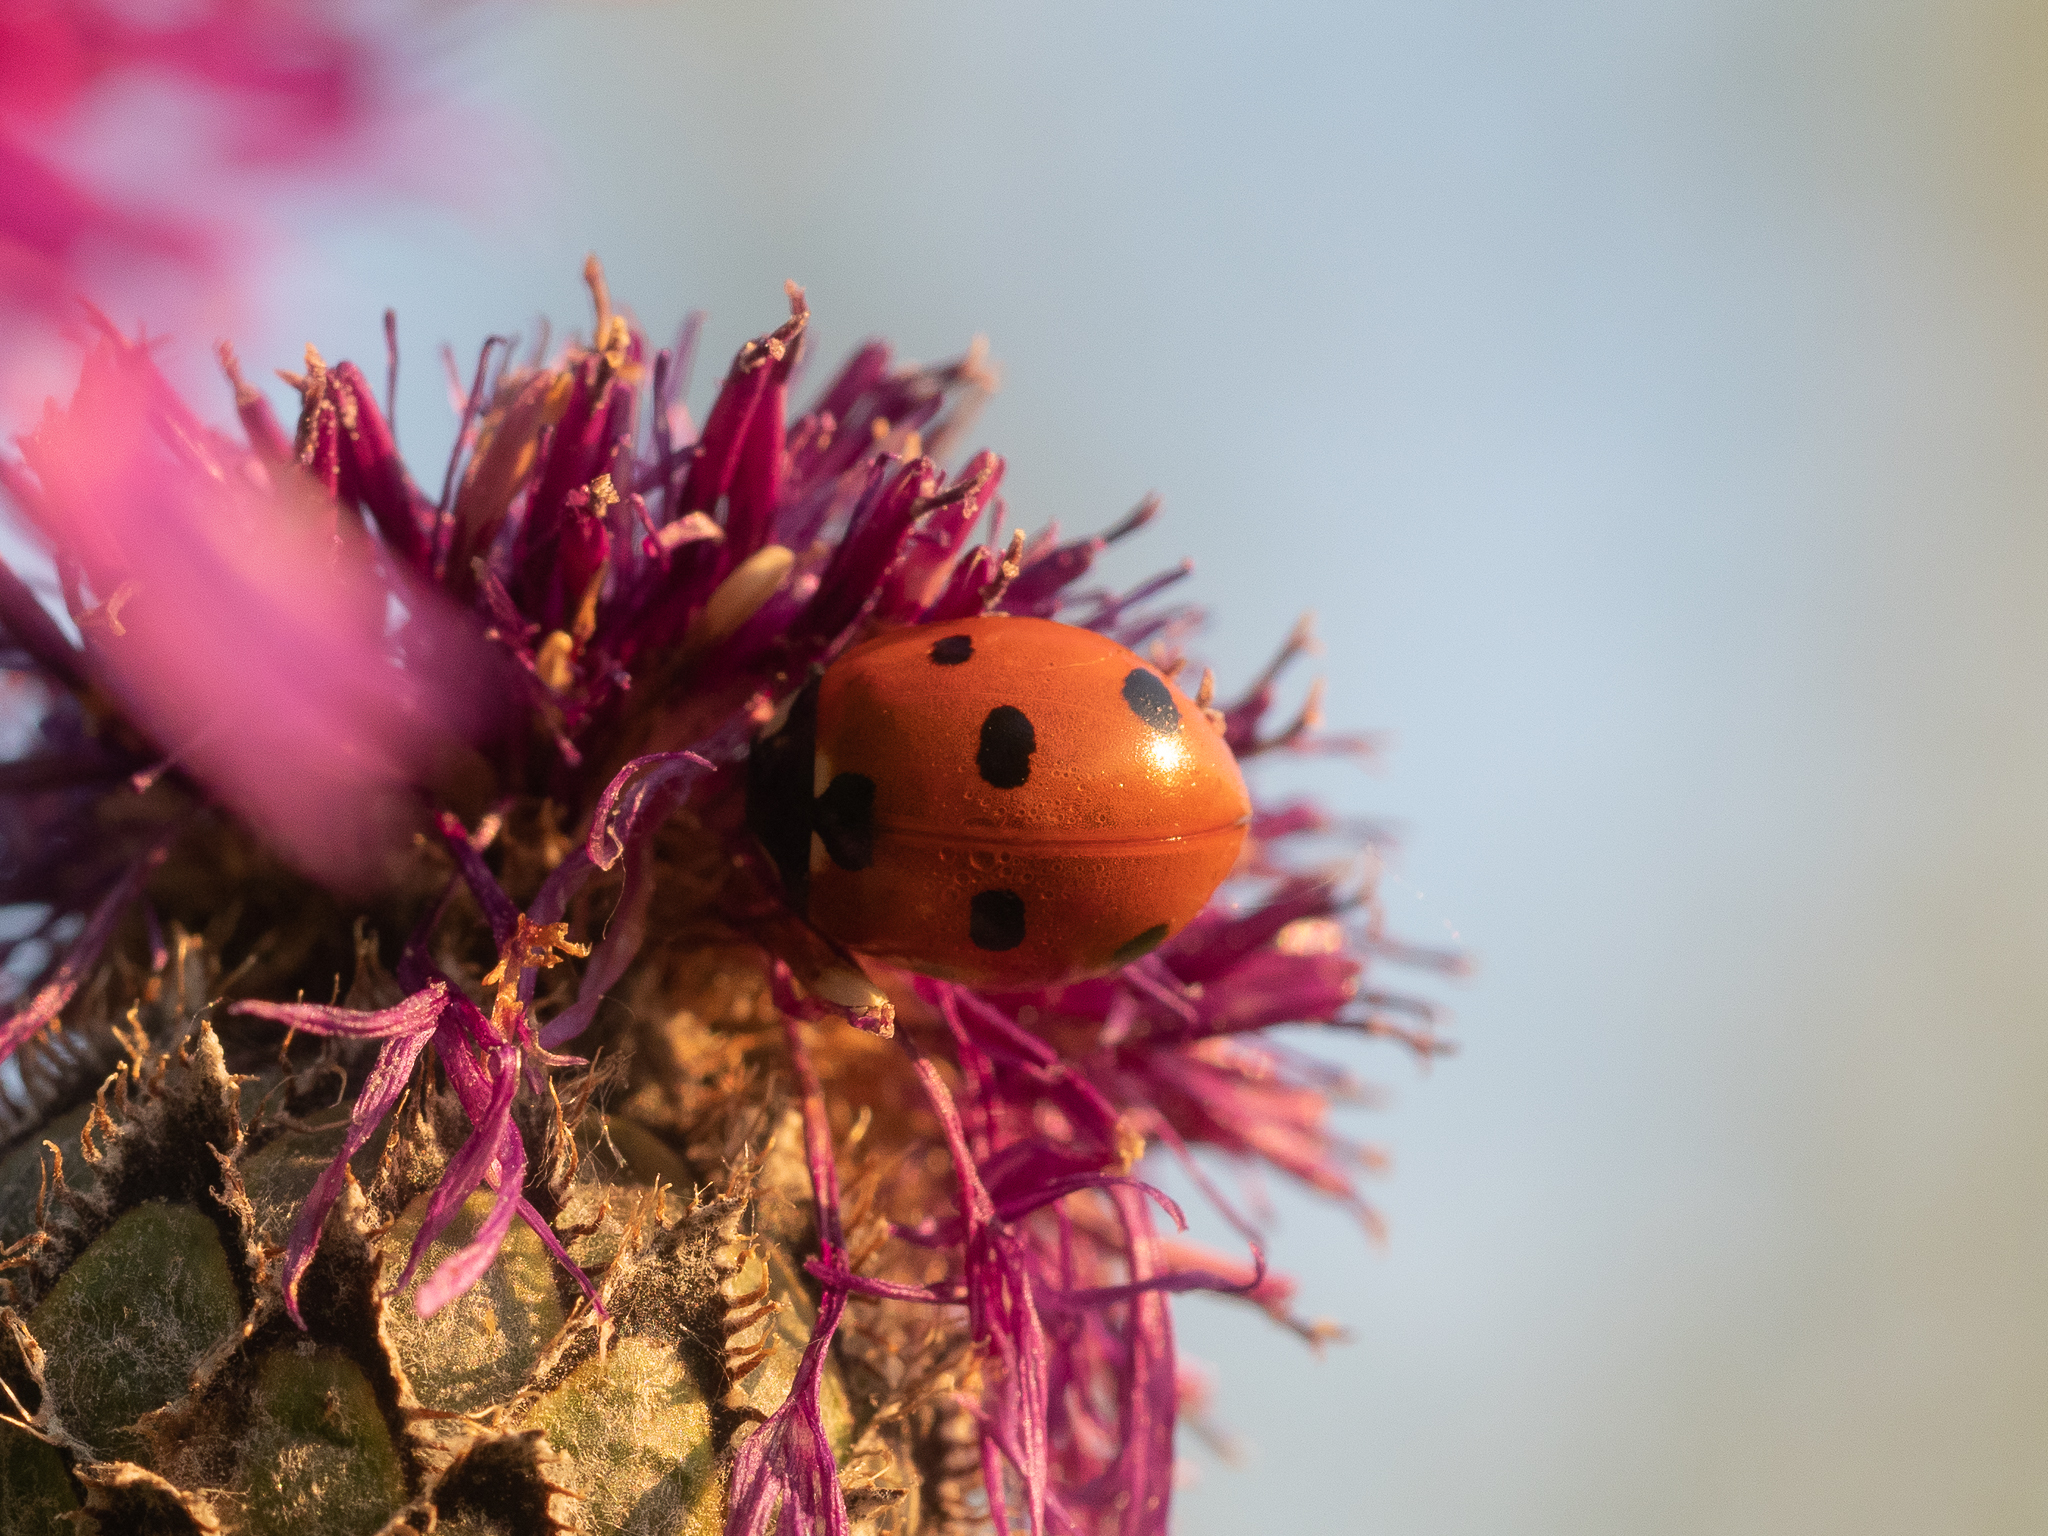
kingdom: Animalia
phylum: Arthropoda
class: Insecta
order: Coleoptera
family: Coccinellidae
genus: Coccinella
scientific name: Coccinella septempunctata
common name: Sevenspotted lady beetle
